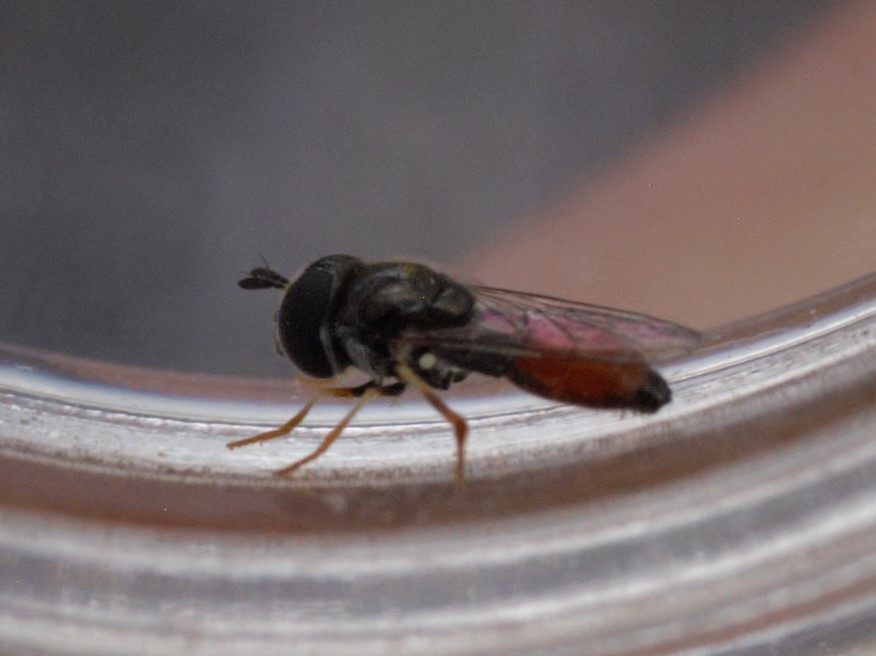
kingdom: Animalia
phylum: Arthropoda
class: Insecta
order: Diptera
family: Syrphidae
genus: Paragus
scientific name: Paragus haemorrhous
